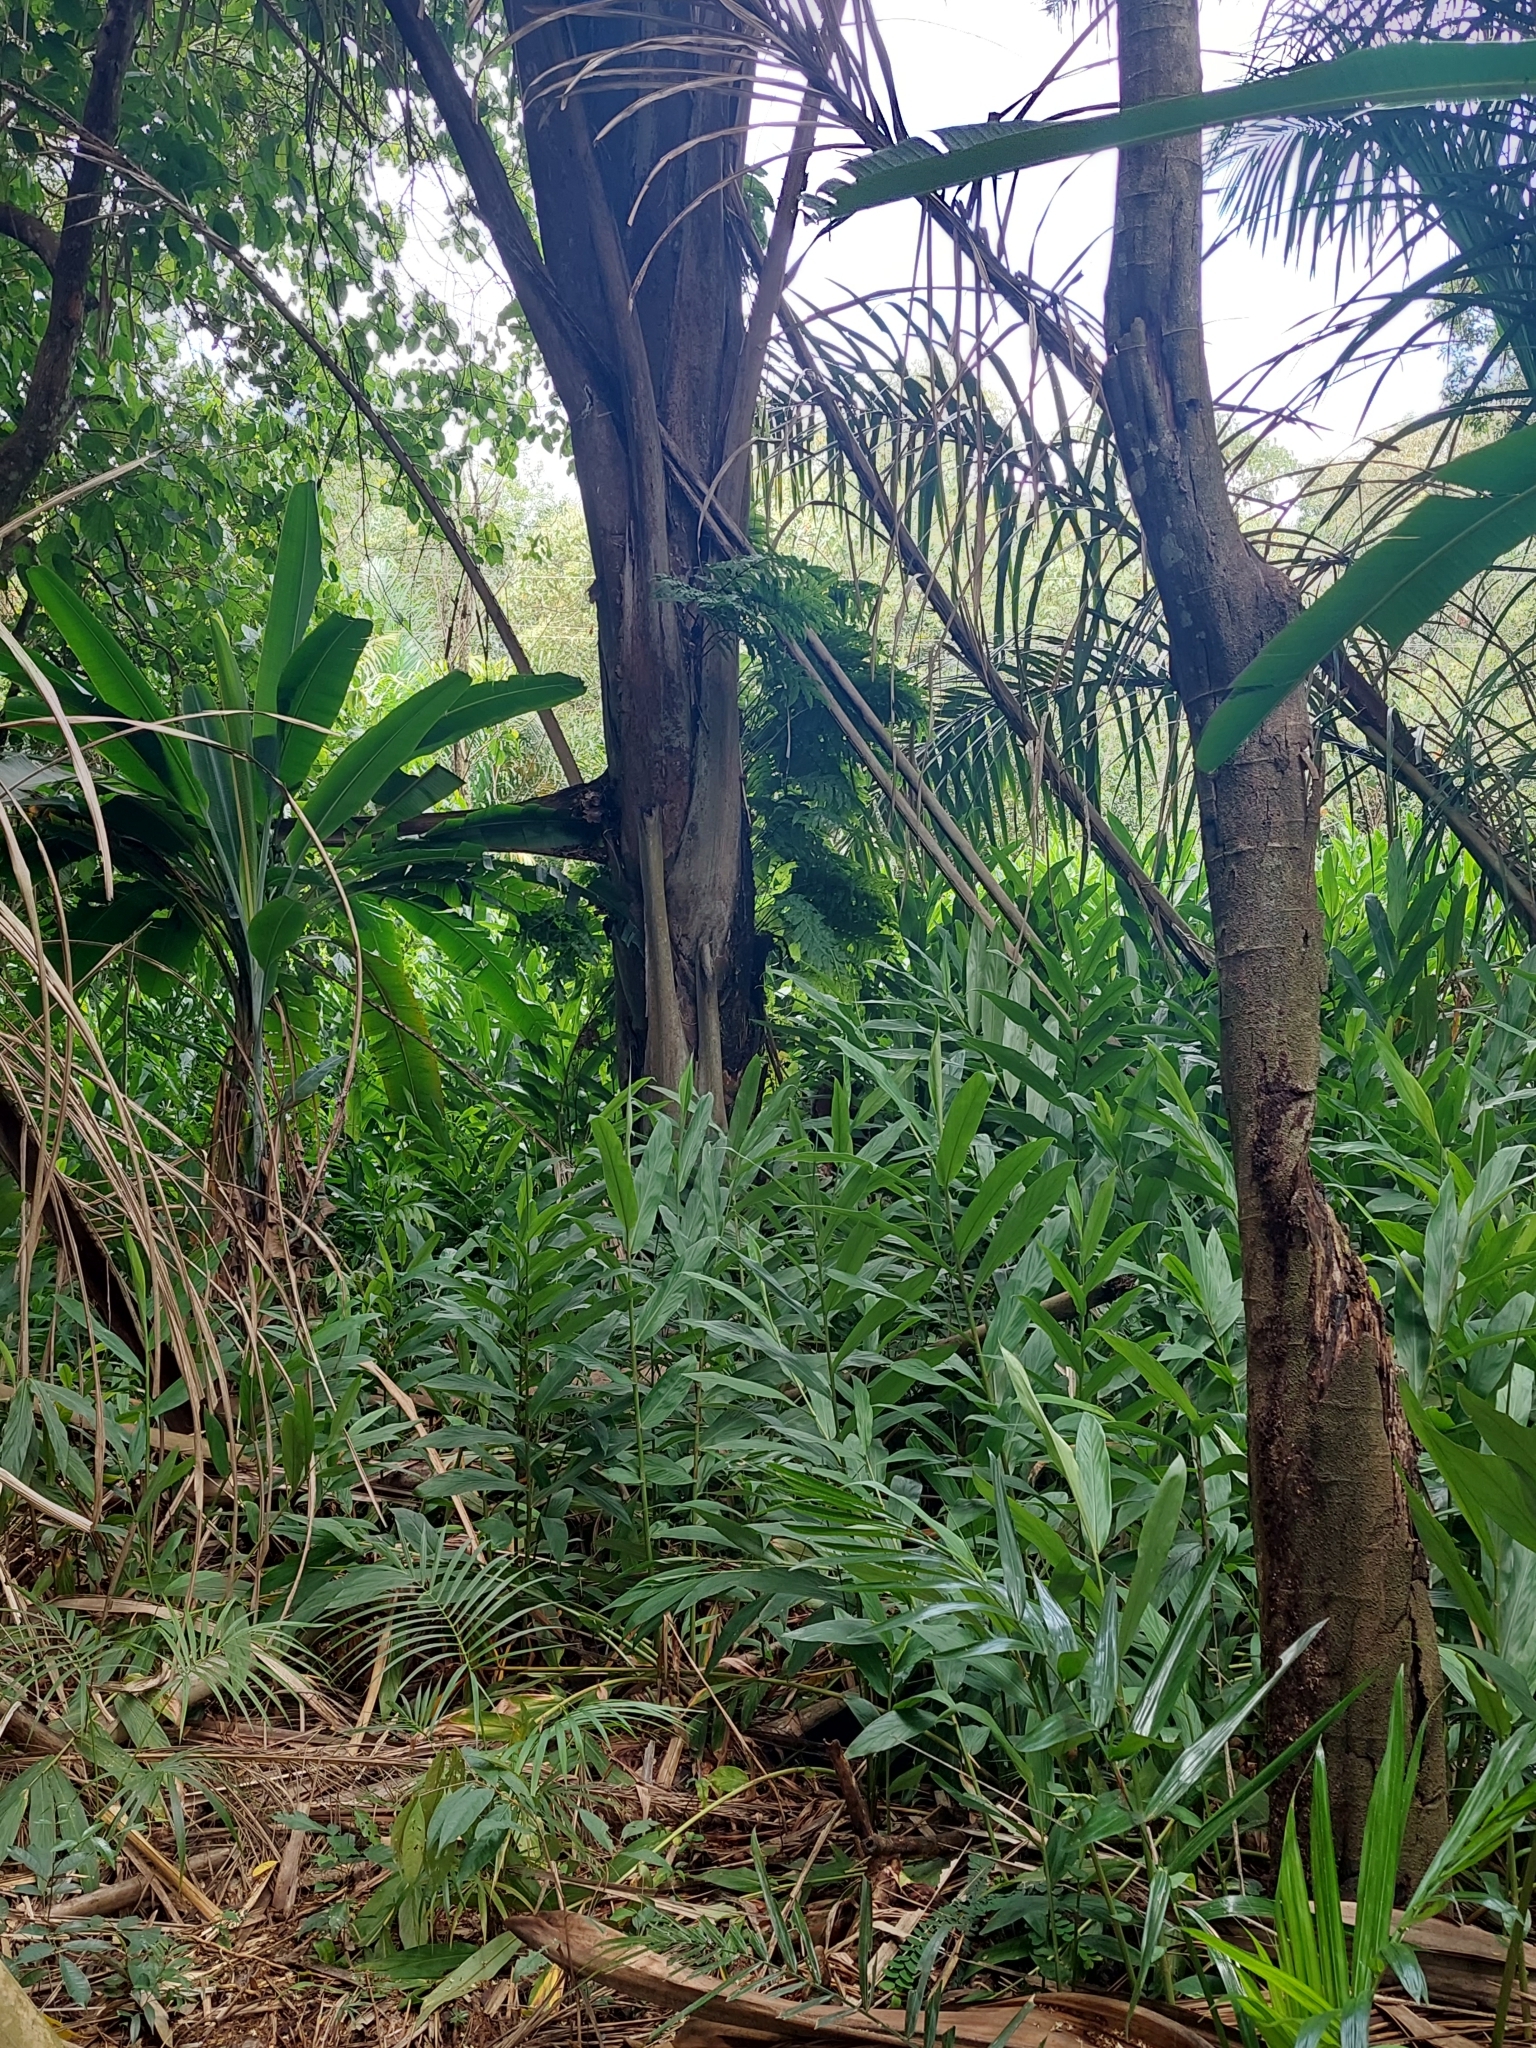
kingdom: Plantae
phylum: Tracheophyta
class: Liliopsida
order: Zingiberales
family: Zingiberaceae
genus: Hedychium
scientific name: Hedychium coronarium
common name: White garland-lily
